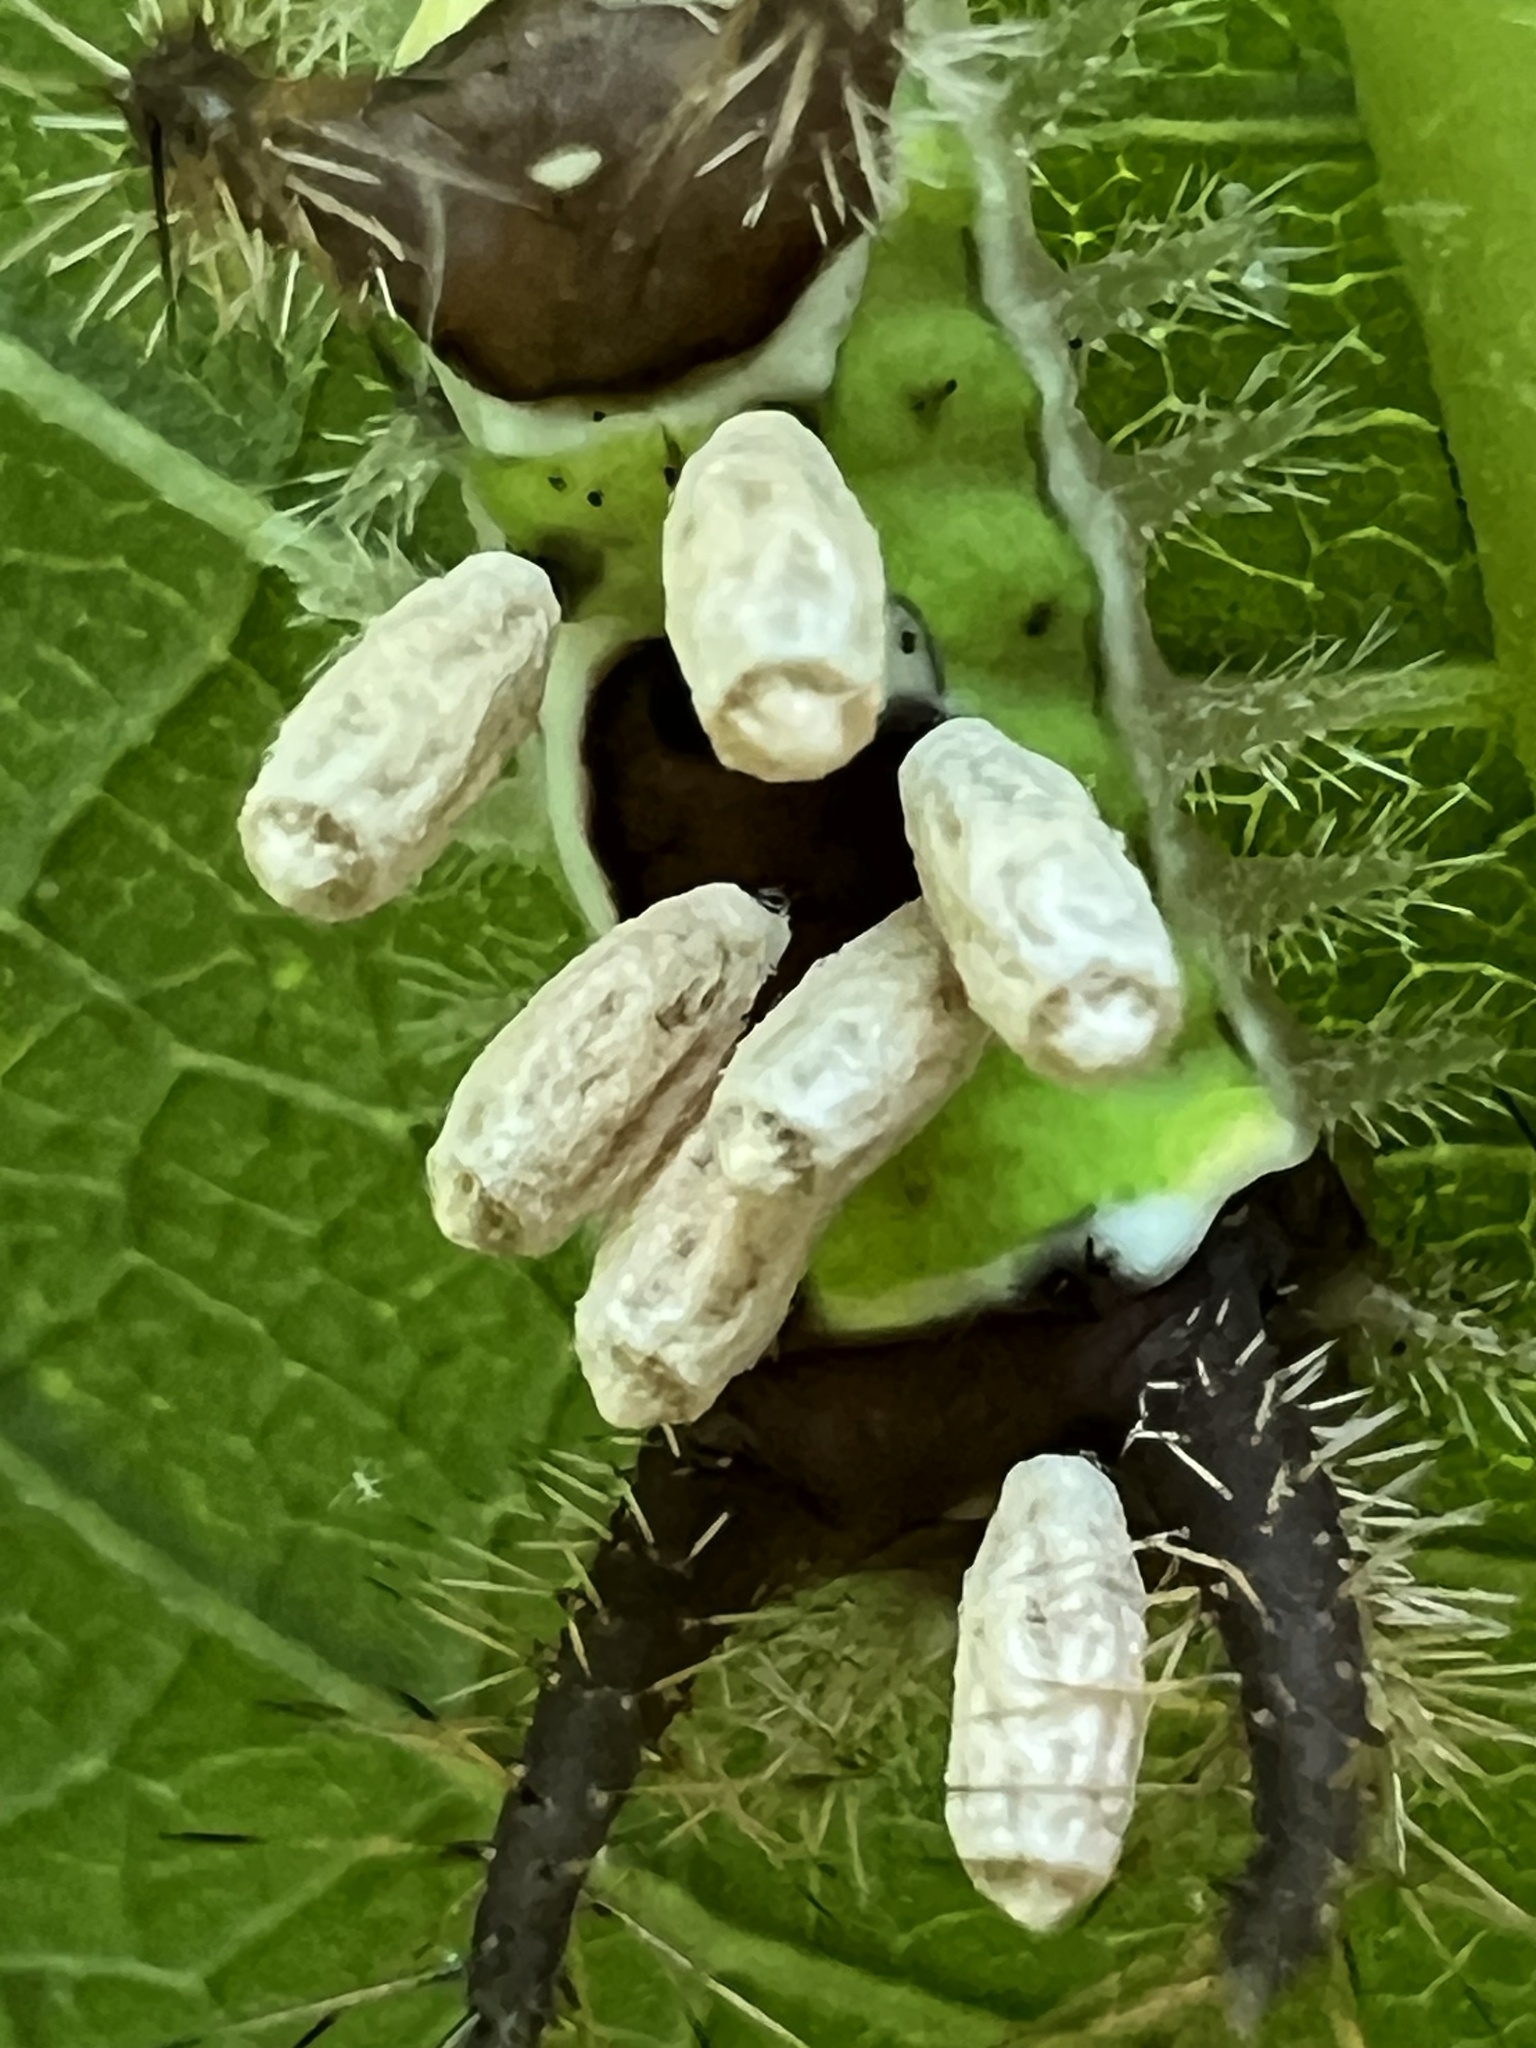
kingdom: Animalia
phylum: Arthropoda
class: Insecta
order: Hymenoptera
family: Braconidae
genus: Cotesia
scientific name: Cotesia empretiae
